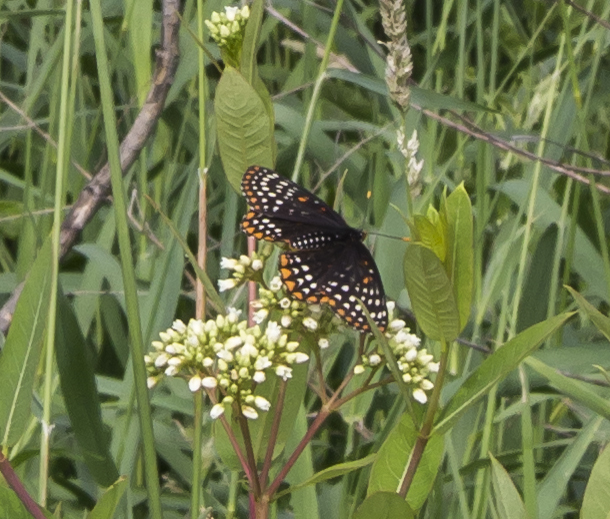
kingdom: Animalia
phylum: Arthropoda
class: Insecta
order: Lepidoptera
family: Nymphalidae
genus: Euphydryas
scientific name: Euphydryas phaeton
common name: Baltimore checkerspot
